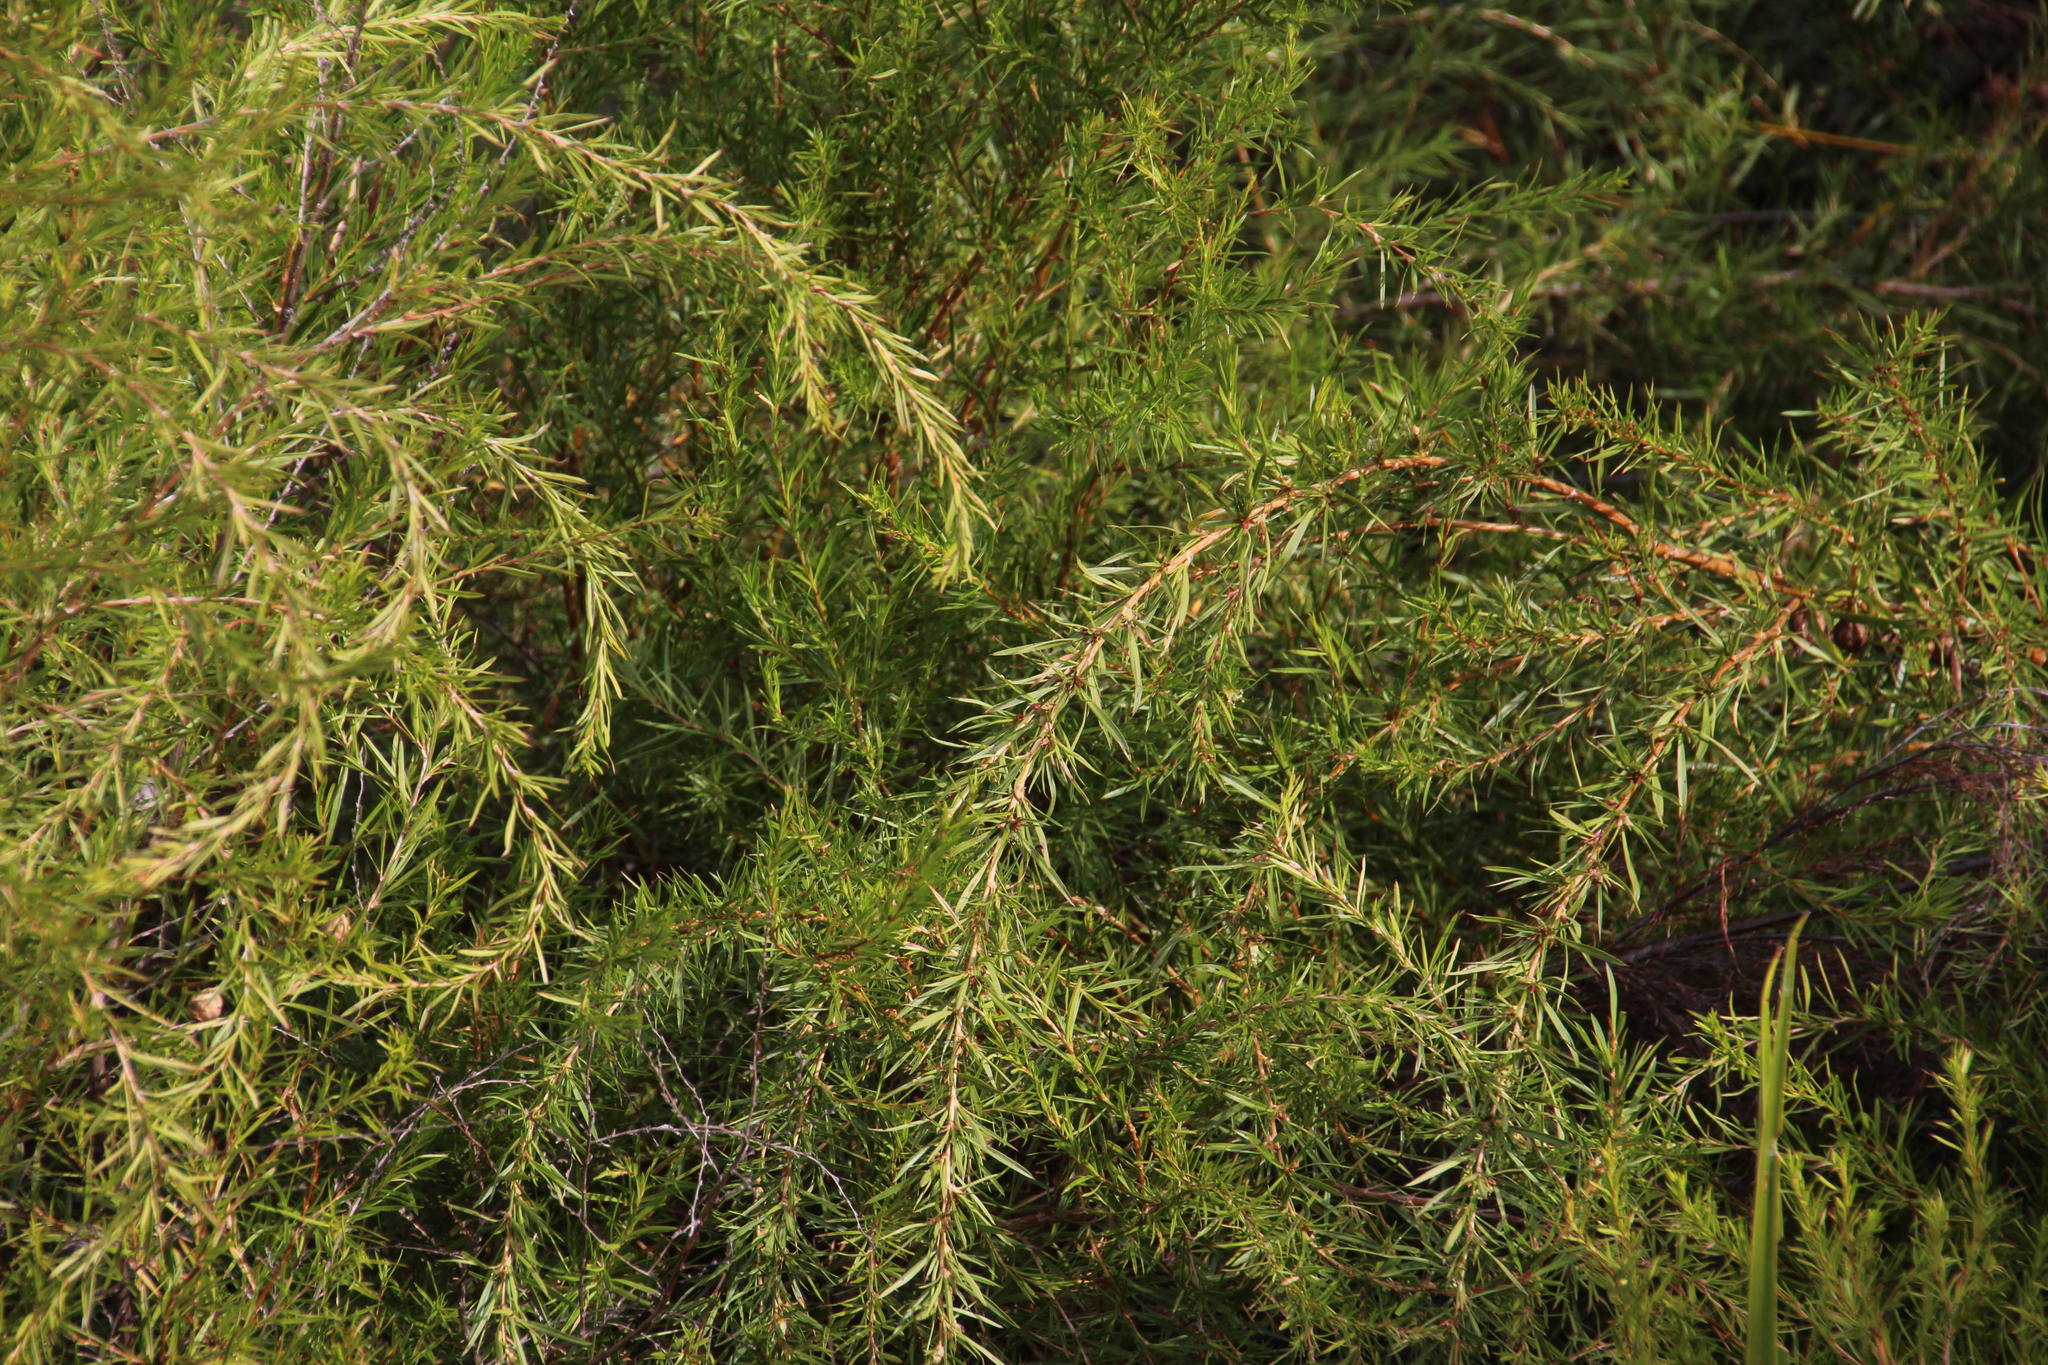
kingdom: Plantae
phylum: Tracheophyta
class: Magnoliopsida
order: Rosales
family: Rosaceae
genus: Cliffortia
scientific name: Cliffortia strobilifera
